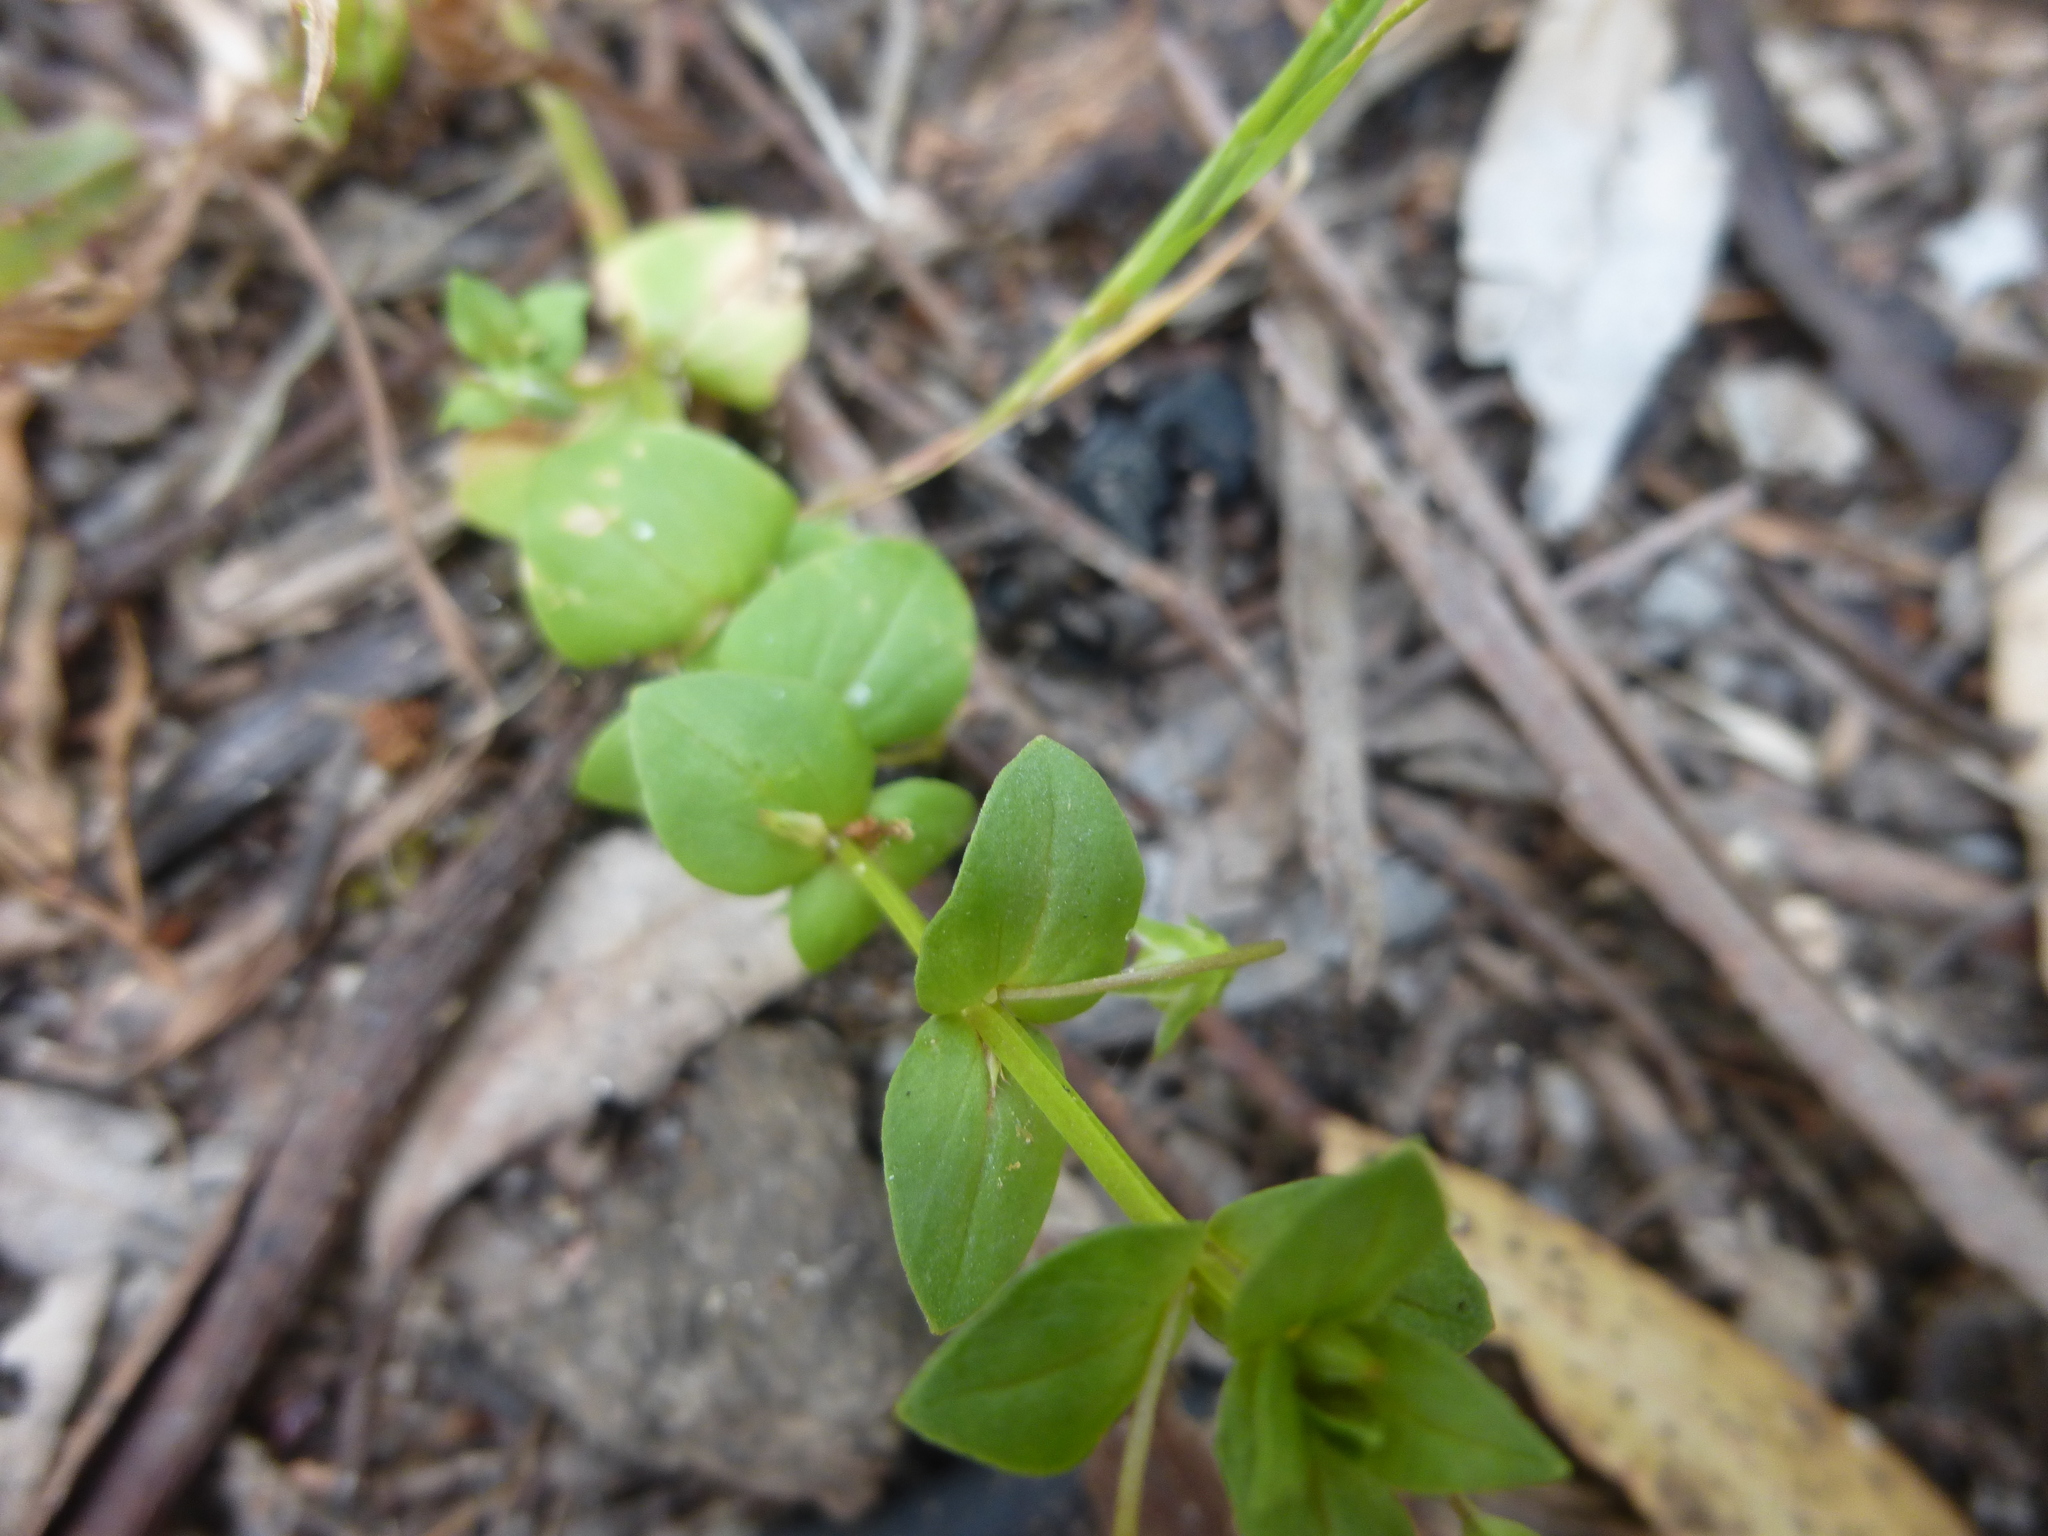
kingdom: Plantae
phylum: Tracheophyta
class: Magnoliopsida
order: Ericales
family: Primulaceae
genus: Lysimachia
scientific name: Lysimachia loeflingii
